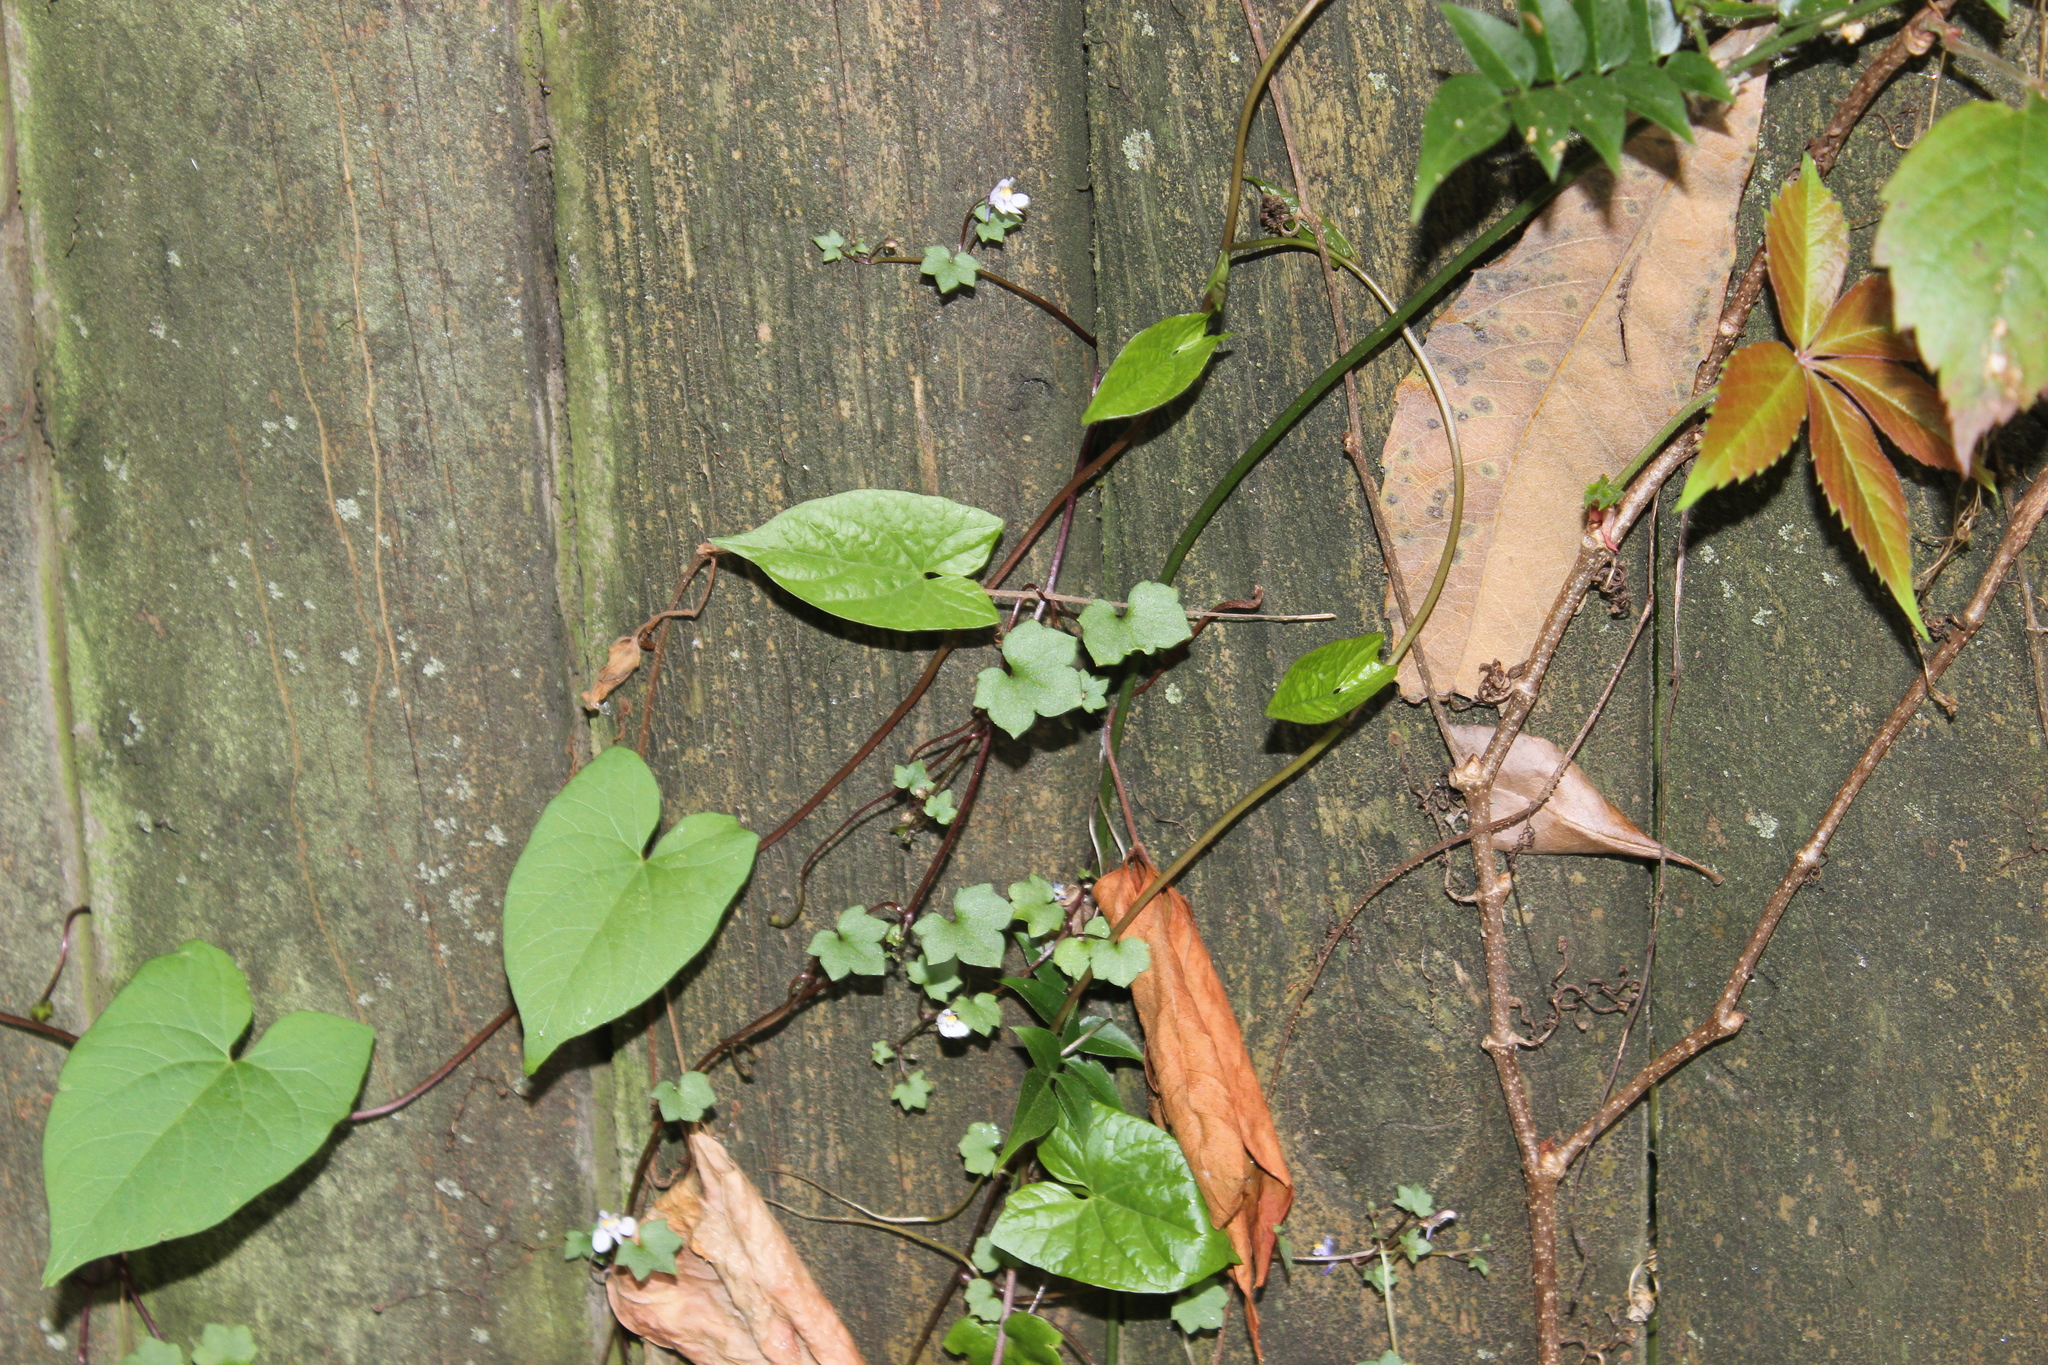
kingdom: Plantae
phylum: Tracheophyta
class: Magnoliopsida
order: Lamiales
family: Plantaginaceae
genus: Cymbalaria
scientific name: Cymbalaria muralis
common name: Ivy-leaved toadflax
